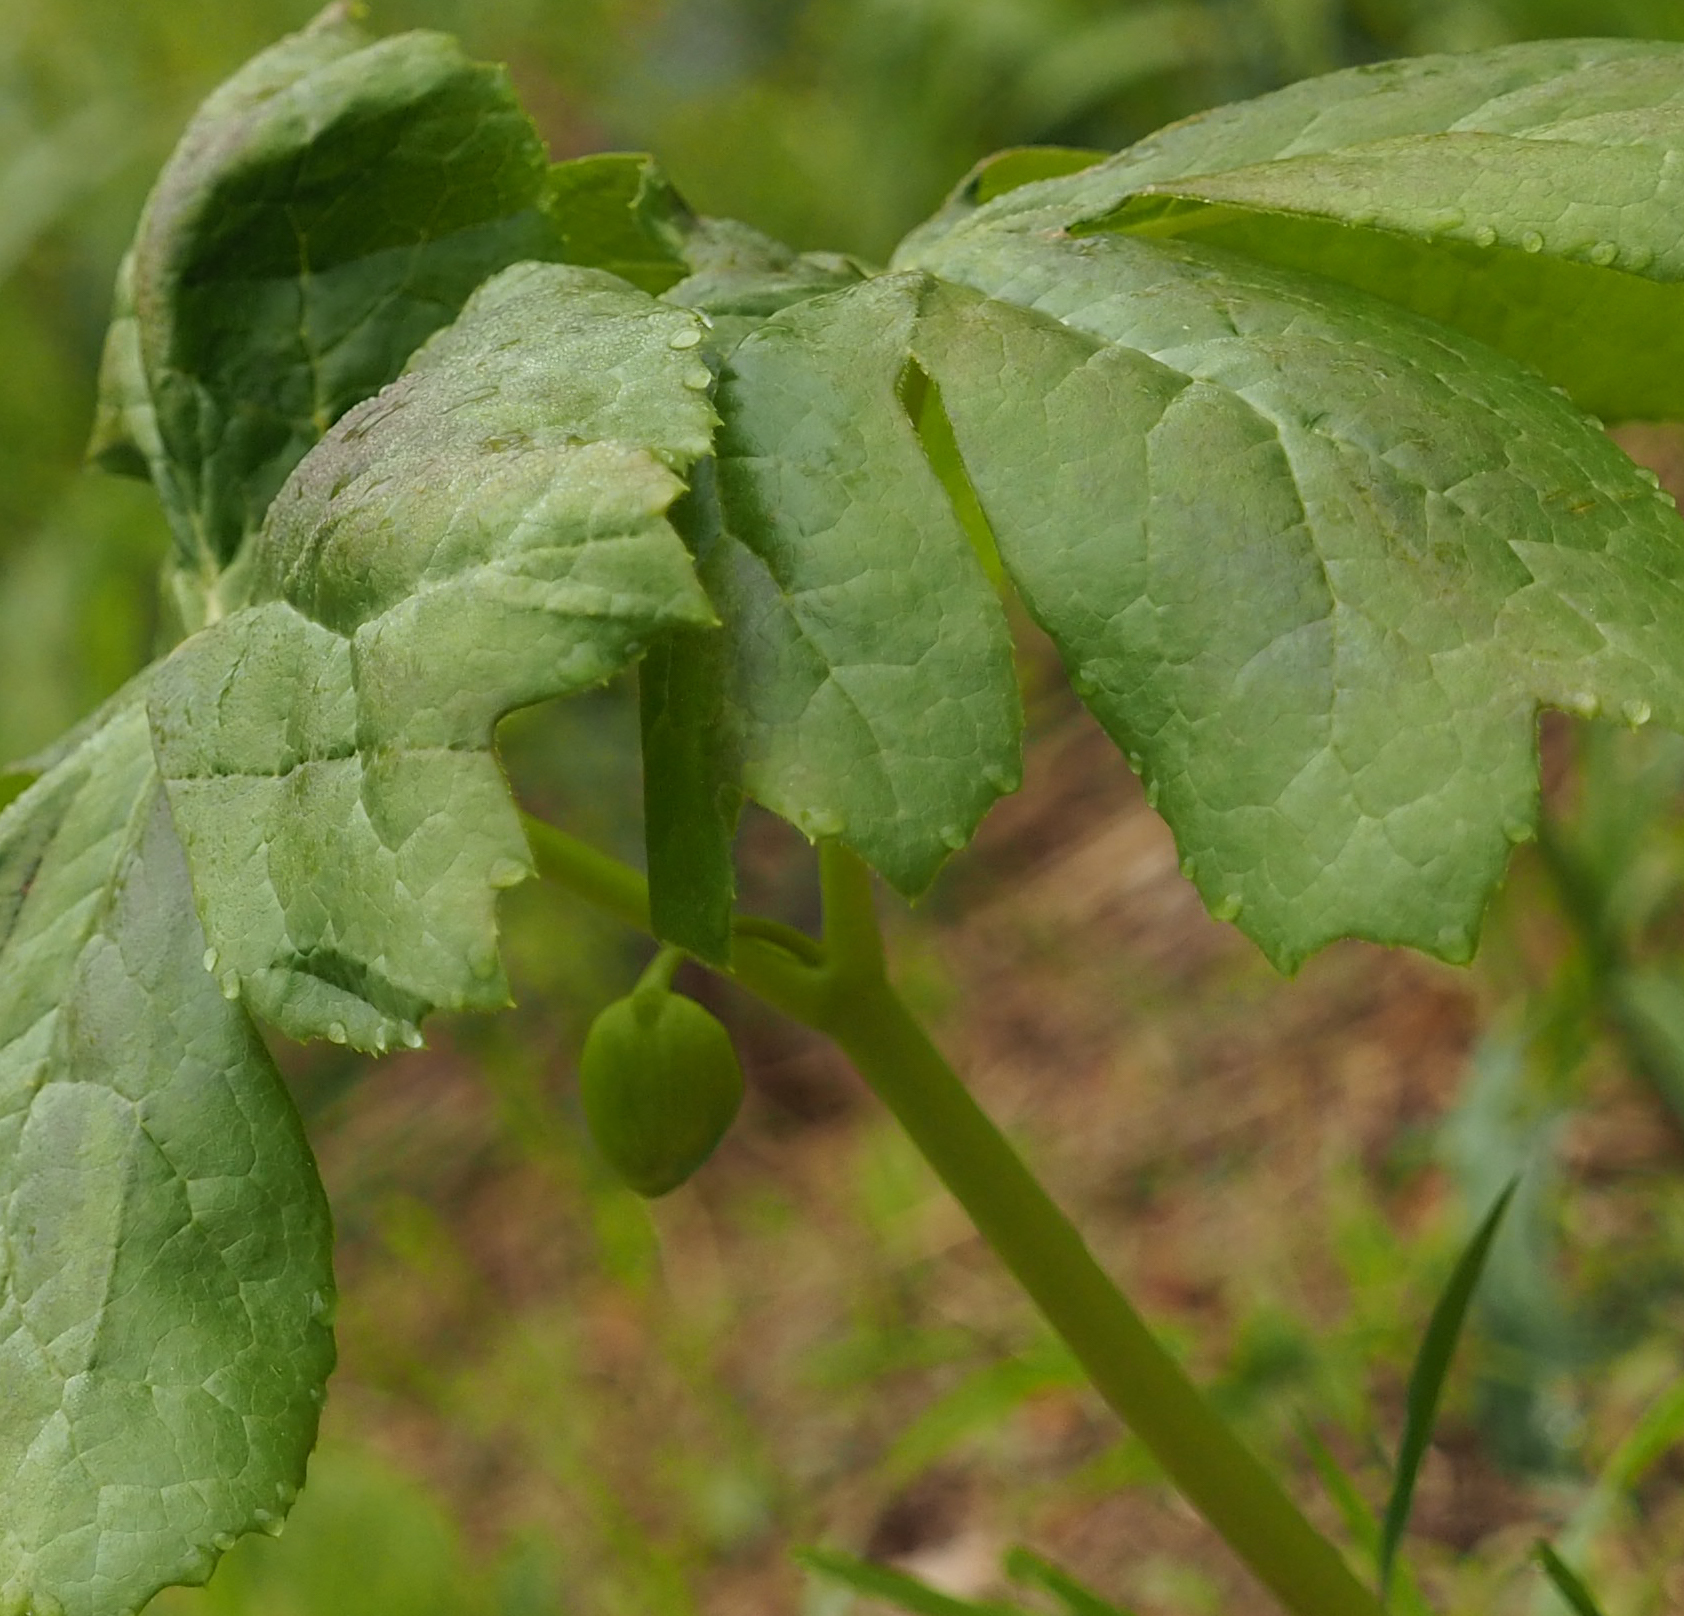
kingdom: Plantae
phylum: Tracheophyta
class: Magnoliopsida
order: Ranunculales
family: Berberidaceae
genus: Podophyllum
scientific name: Podophyllum peltatum
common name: Wild mandrake
